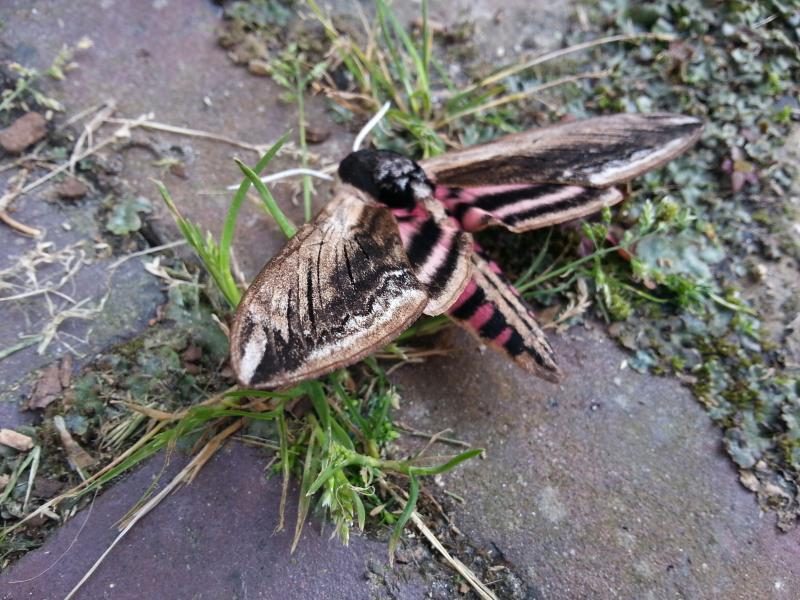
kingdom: Animalia
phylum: Arthropoda
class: Insecta
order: Lepidoptera
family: Sphingidae
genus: Sphinx
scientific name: Sphinx ligustri
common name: Privet hawk-moth
